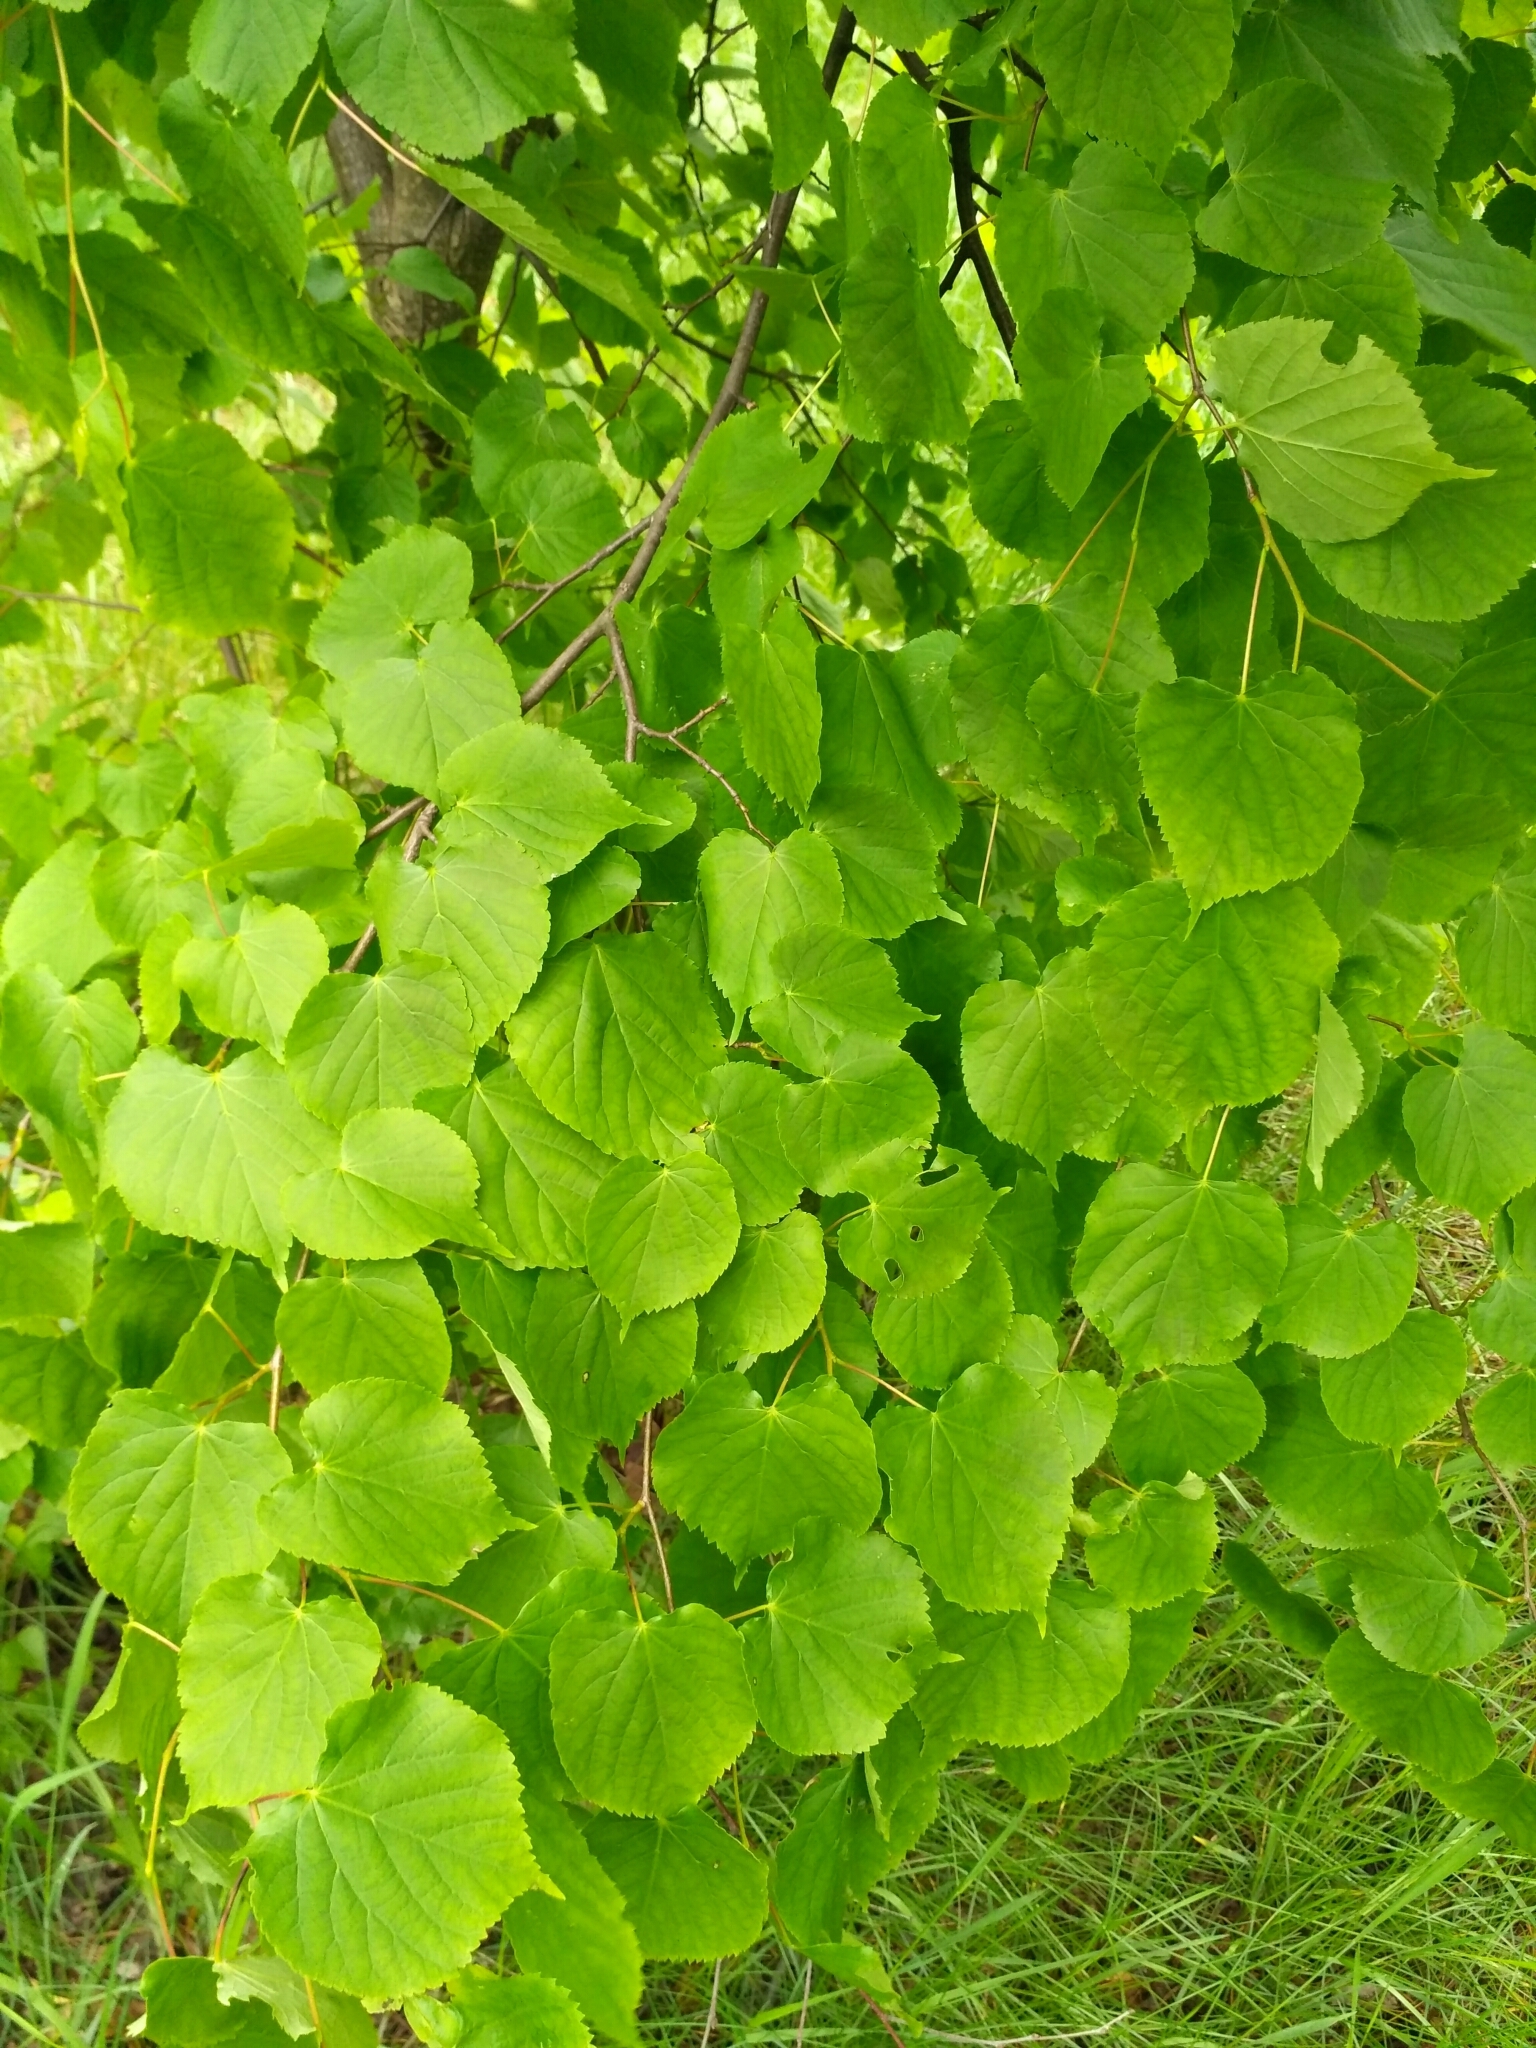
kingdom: Plantae
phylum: Tracheophyta
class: Magnoliopsida
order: Malvales
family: Malvaceae
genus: Tilia
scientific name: Tilia cordata
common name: Small-leaved lime
